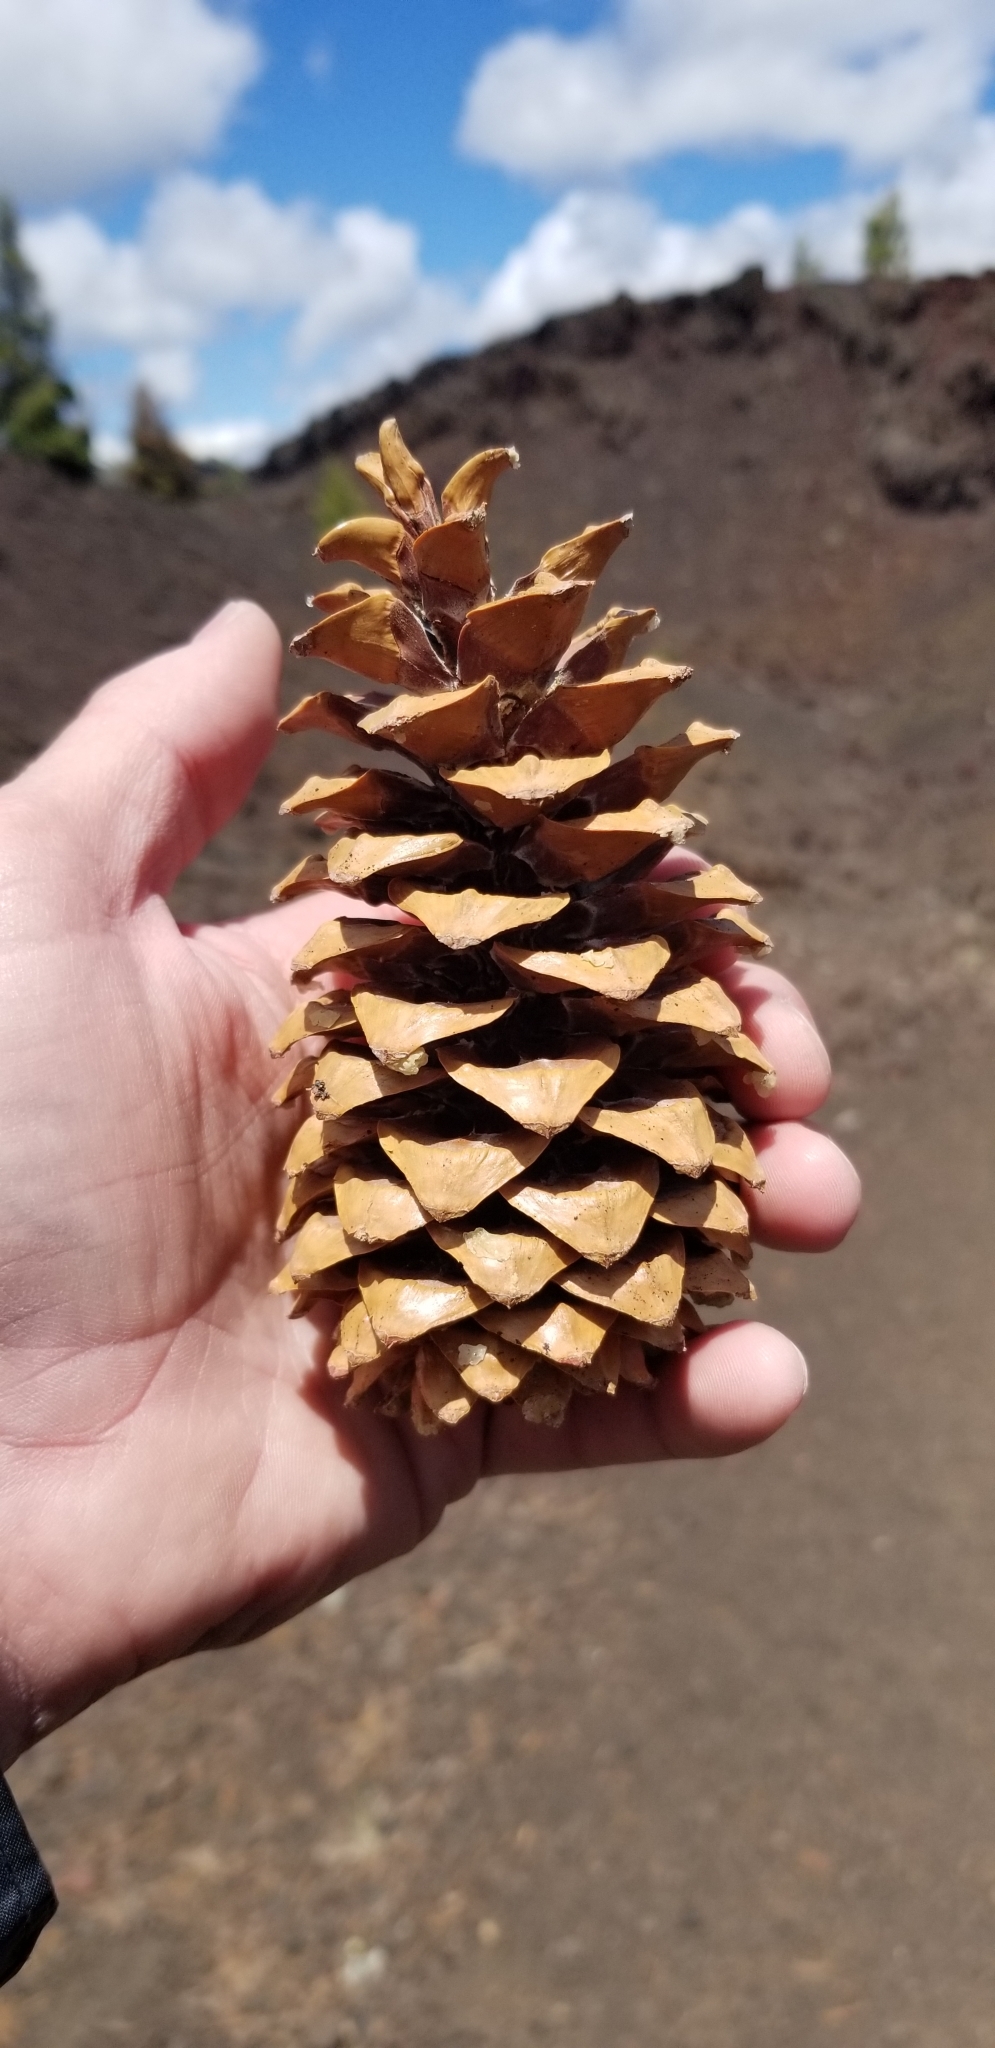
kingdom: Plantae
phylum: Tracheophyta
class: Pinopsida
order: Pinales
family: Pinaceae
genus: Pinus
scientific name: Pinus flexilis
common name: Limber pine
